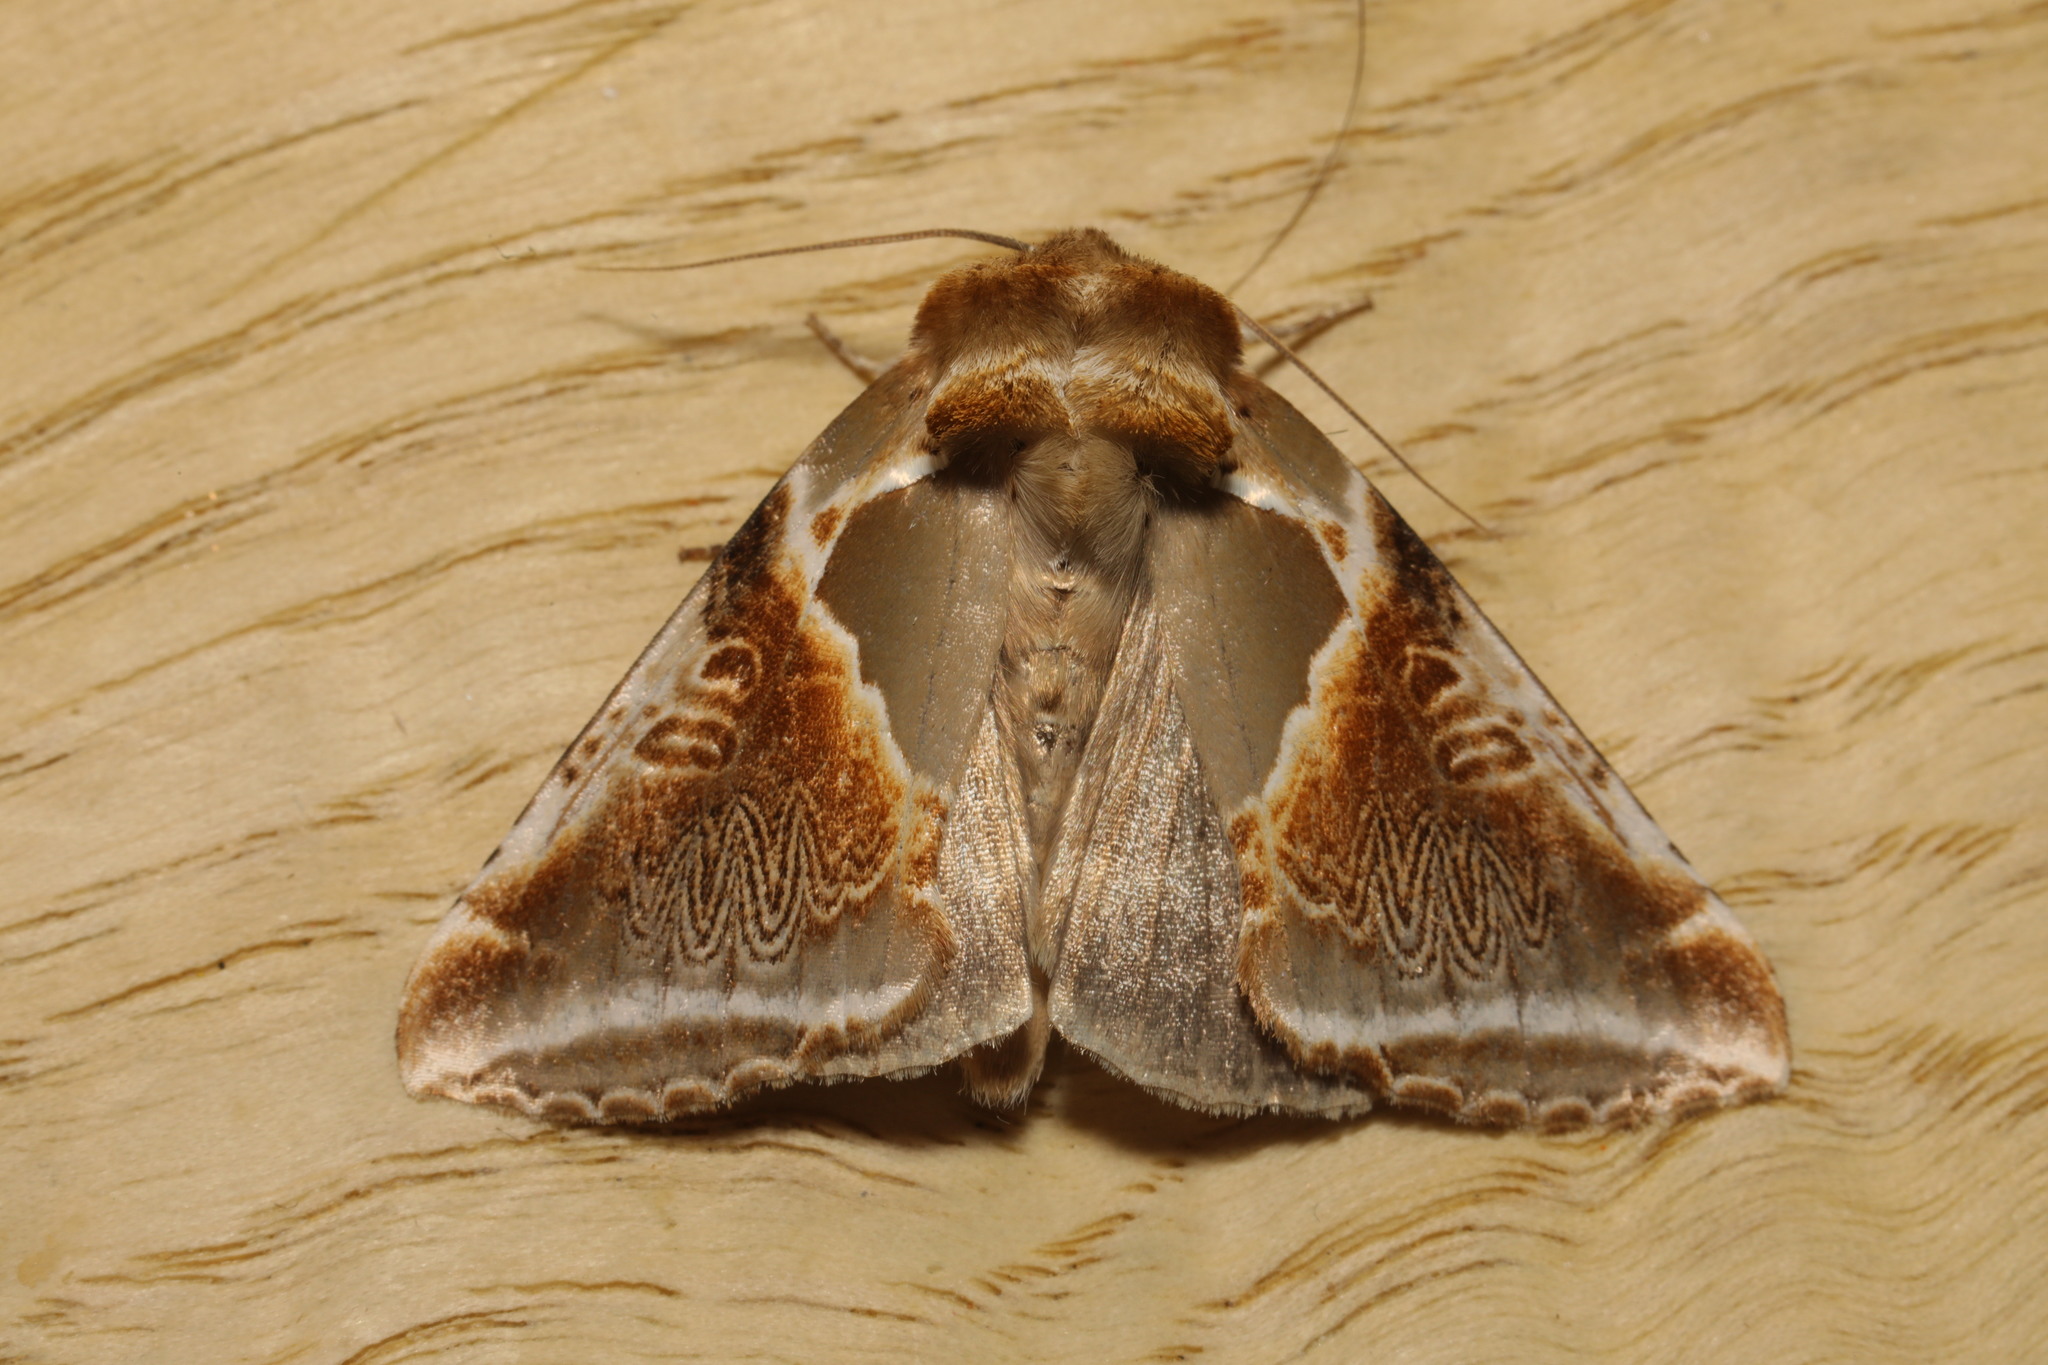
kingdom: Animalia
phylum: Arthropoda
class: Insecta
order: Lepidoptera
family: Drepanidae
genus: Habrosyne
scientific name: Habrosyne pyritoides
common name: Buff arches
